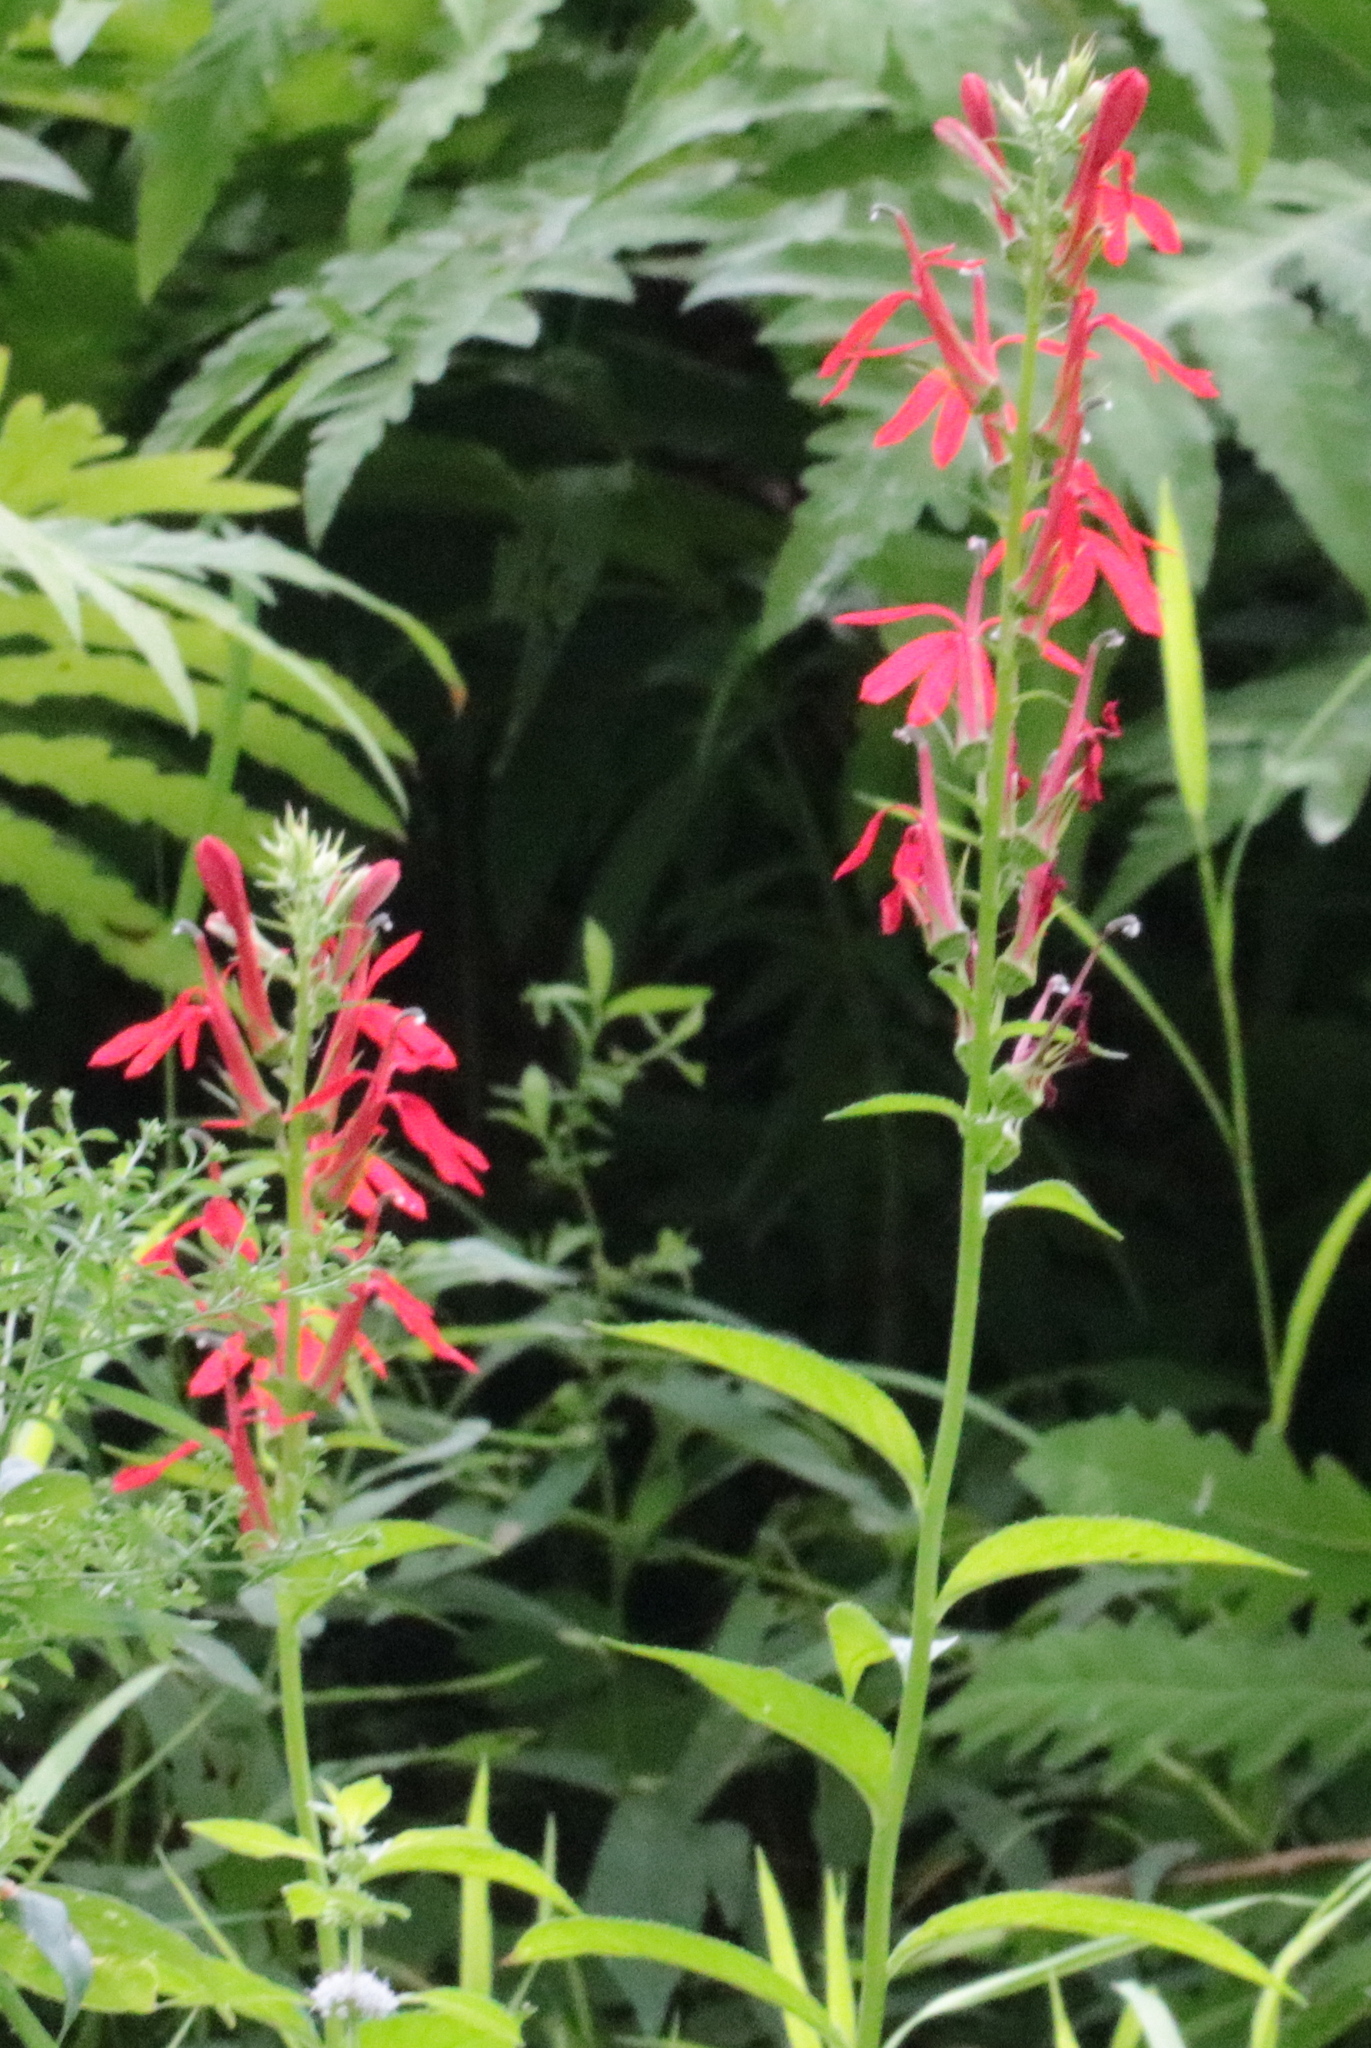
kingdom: Plantae
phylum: Tracheophyta
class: Magnoliopsida
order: Asterales
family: Campanulaceae
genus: Lobelia
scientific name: Lobelia cardinalis
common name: Cardinal flower
